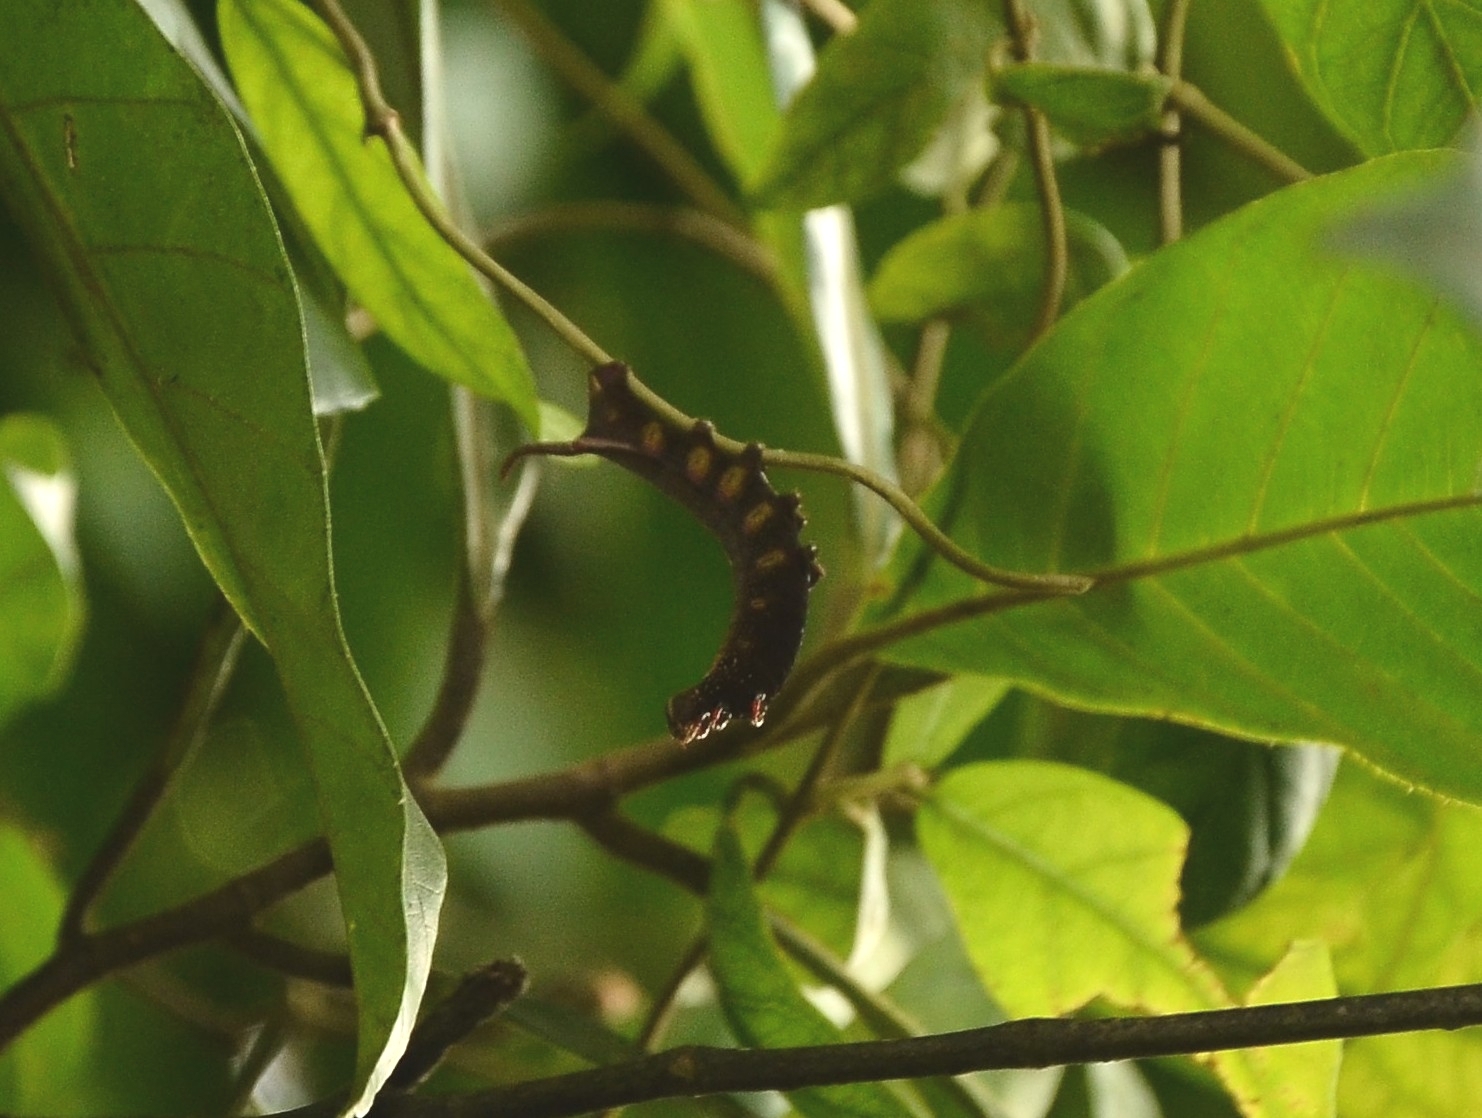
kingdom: Animalia
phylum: Arthropoda
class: Insecta
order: Lepidoptera
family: Sphingidae
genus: Macroglossum
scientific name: Macroglossum belis
